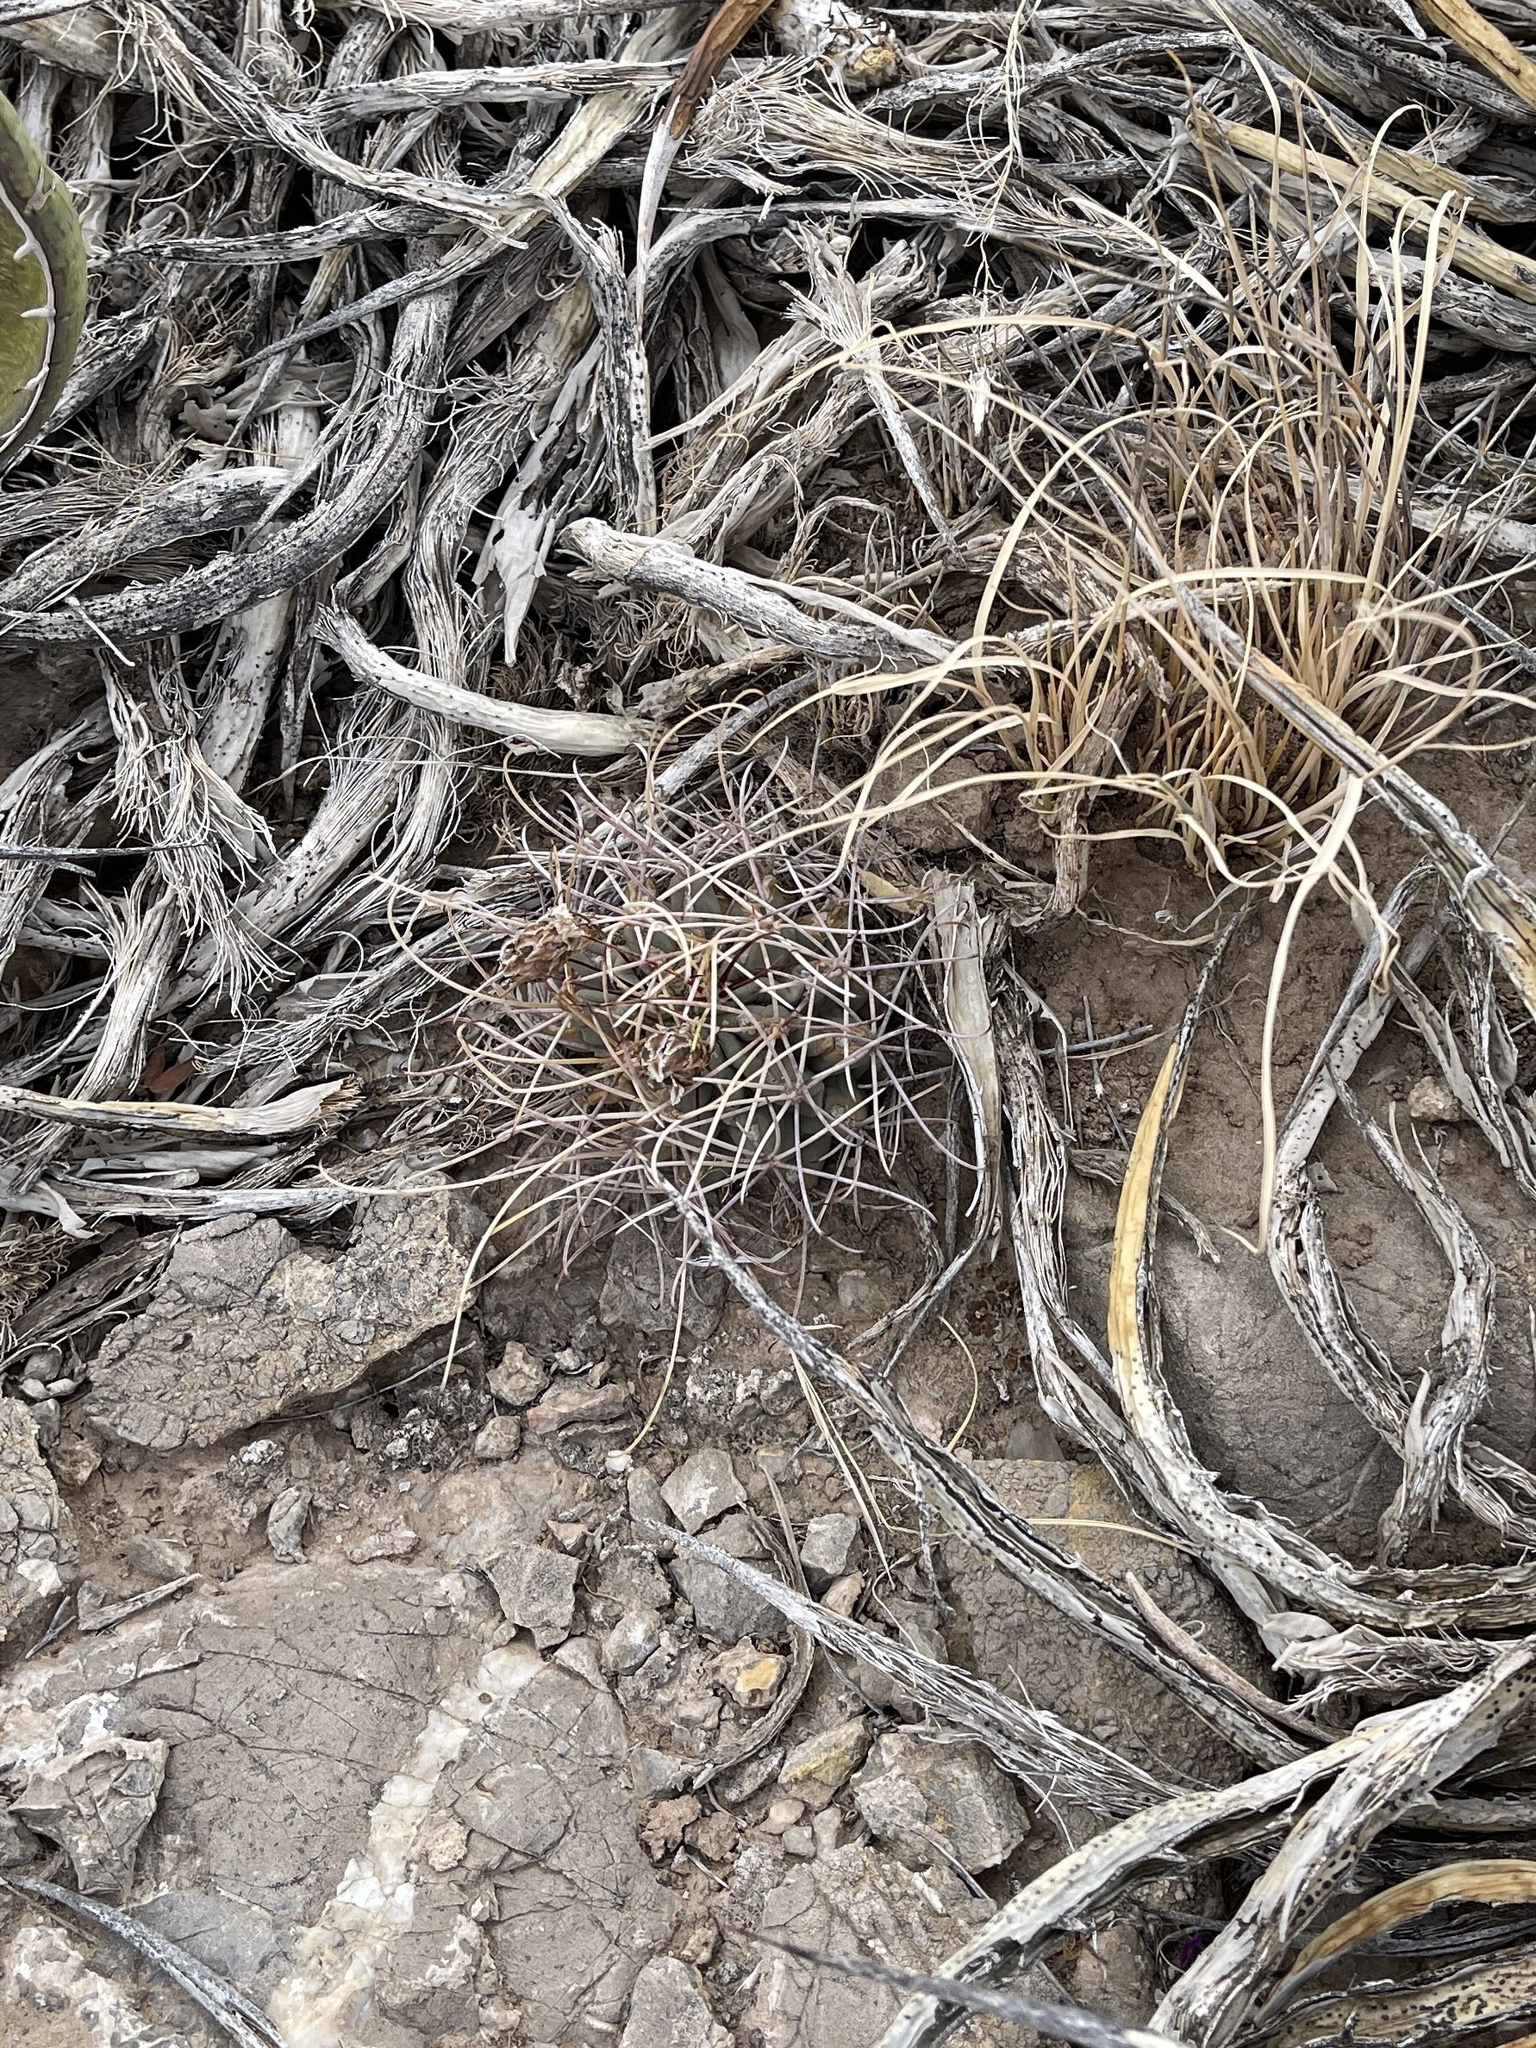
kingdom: Plantae
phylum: Tracheophyta
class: Magnoliopsida
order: Caryophyllales
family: Cactaceae
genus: Ferocactus
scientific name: Ferocactus uncinatus
